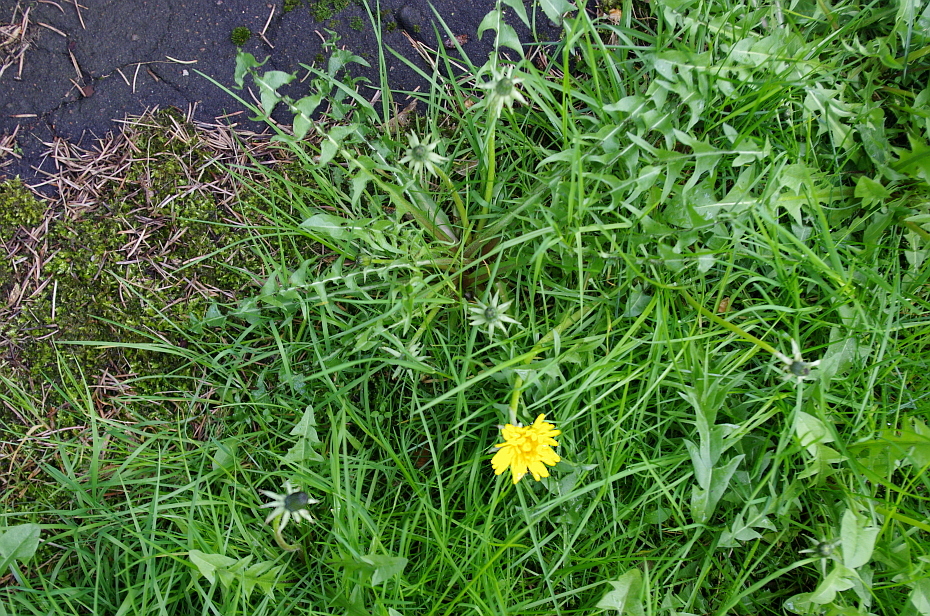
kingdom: Plantae
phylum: Tracheophyta
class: Magnoliopsida
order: Asterales
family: Asteraceae
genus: Taraxacum
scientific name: Taraxacum officinale
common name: Common dandelion
